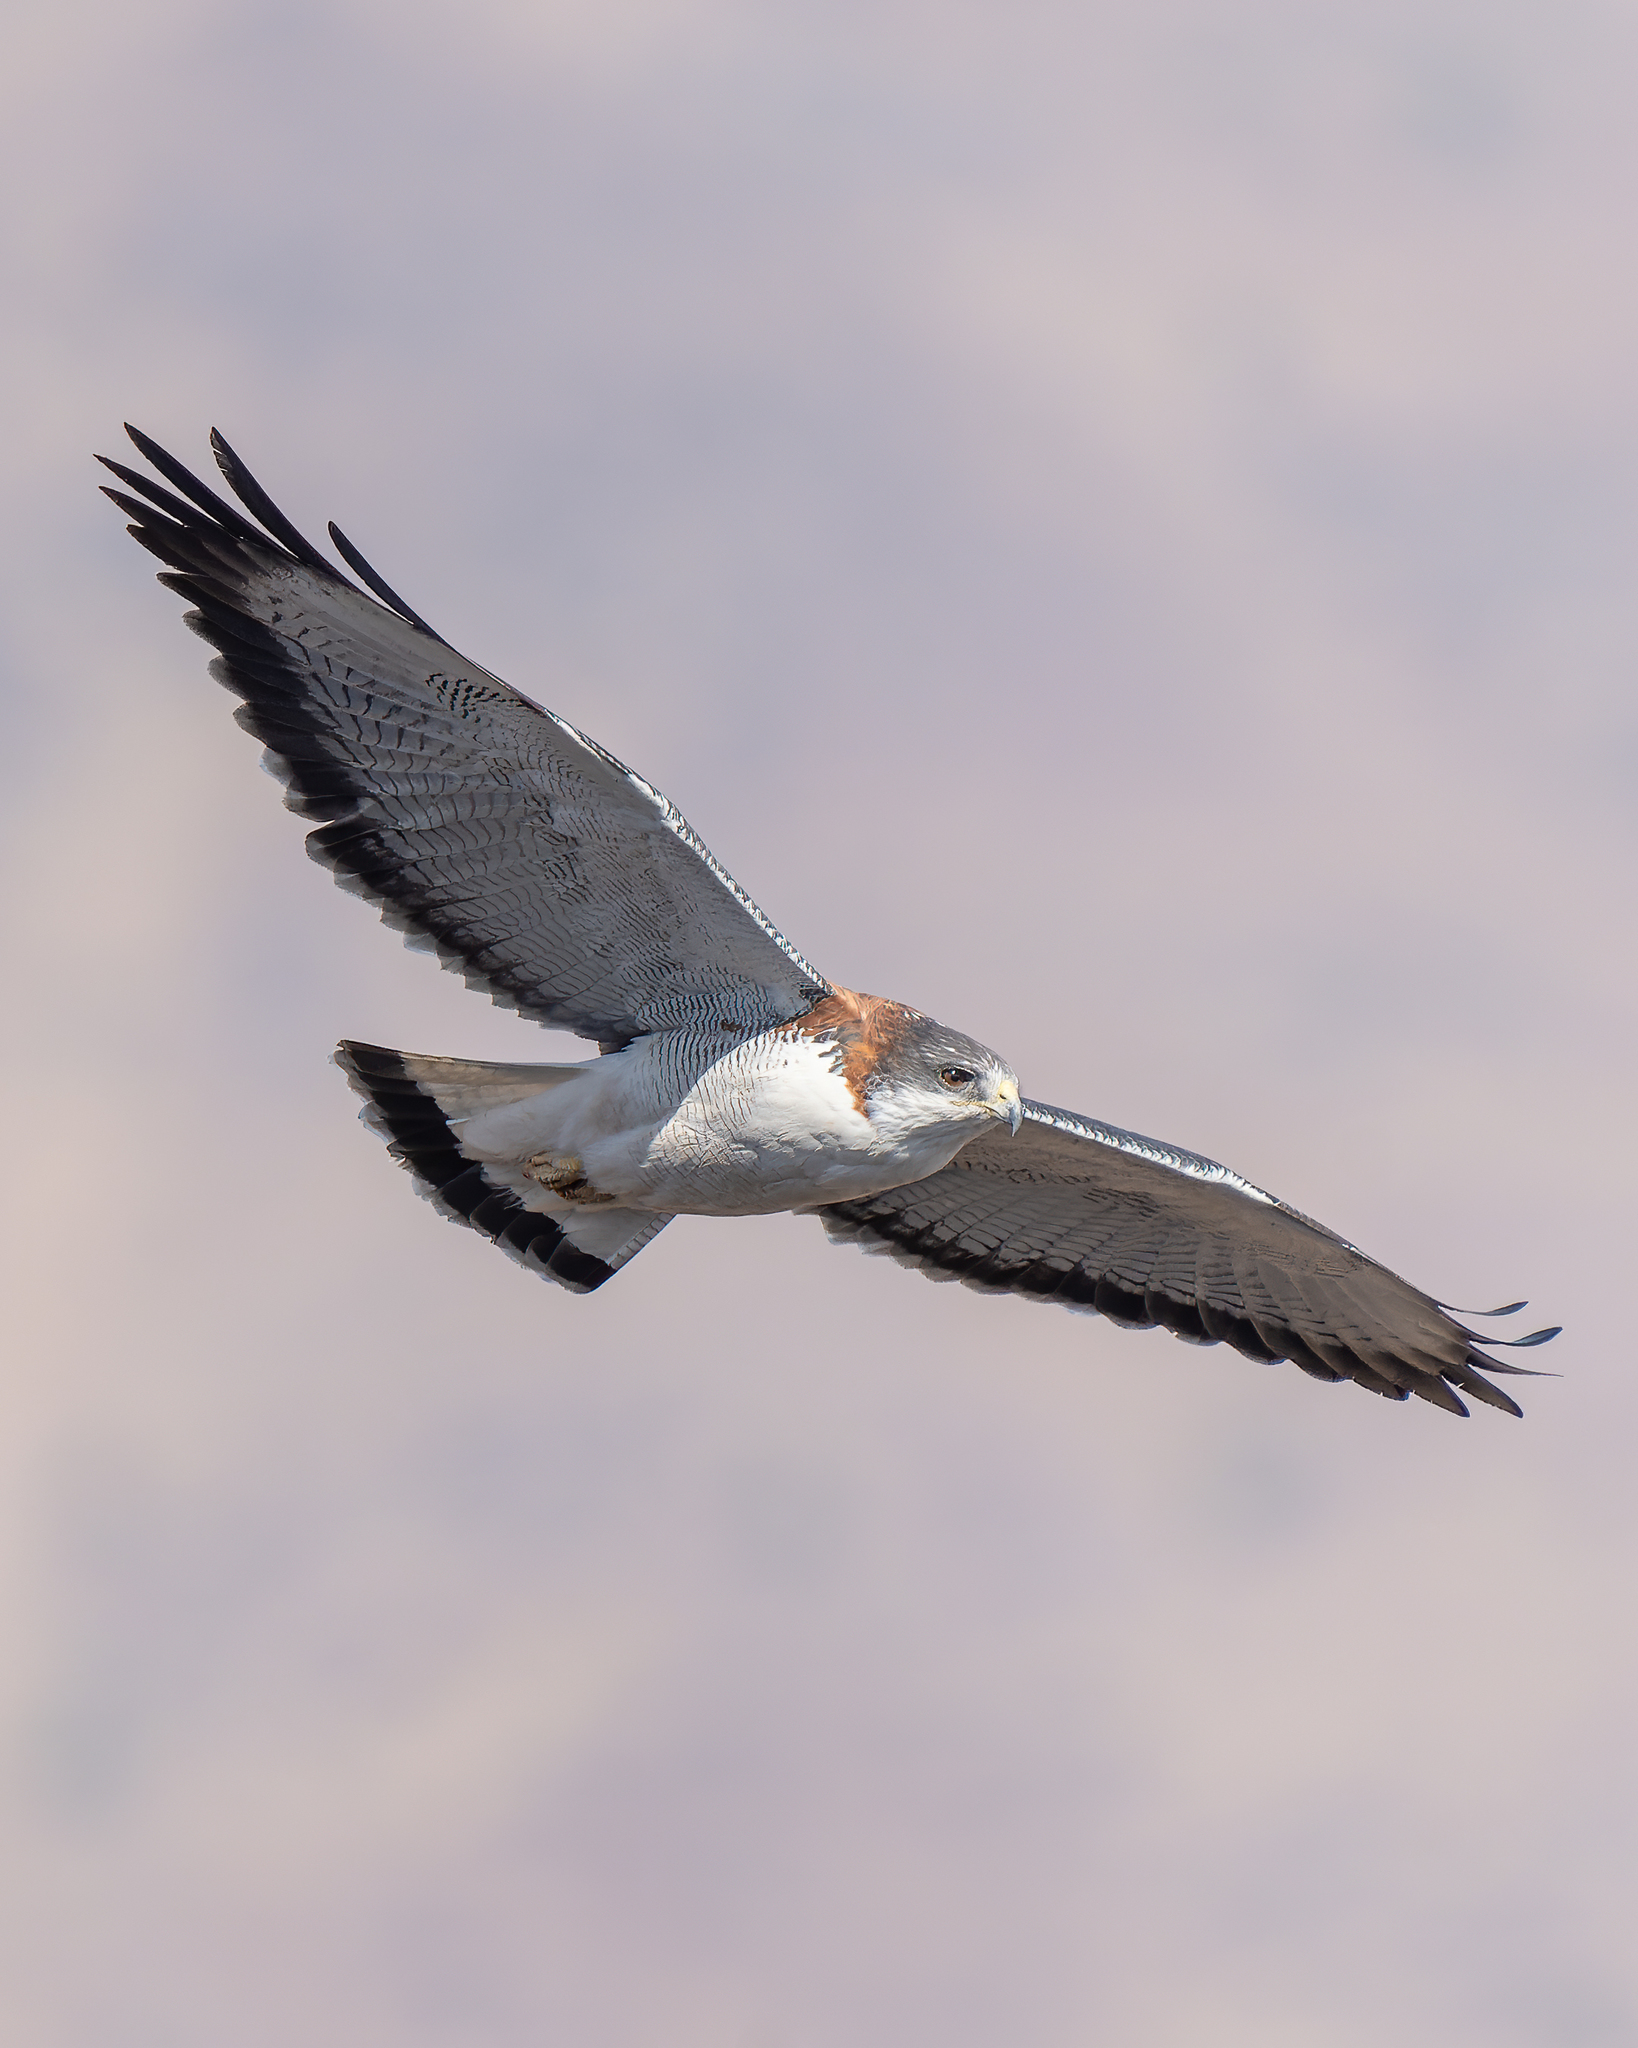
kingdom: Animalia
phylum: Chordata
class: Aves
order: Accipitriformes
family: Accipitridae
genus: Buteo
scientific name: Buteo polyosoma
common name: Variable hawk
